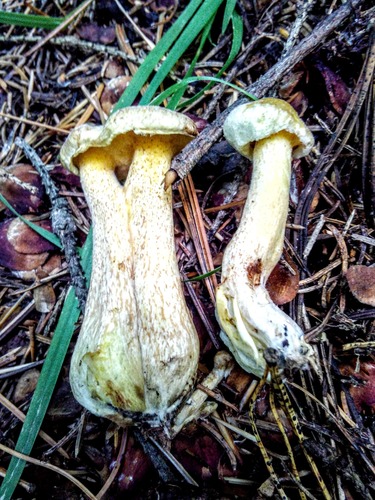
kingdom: Fungi
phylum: Basidiomycota
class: Agaricomycetes
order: Boletales
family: Suillaceae
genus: Suillus
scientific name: Suillus americanus
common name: Chicken fat mushroom
